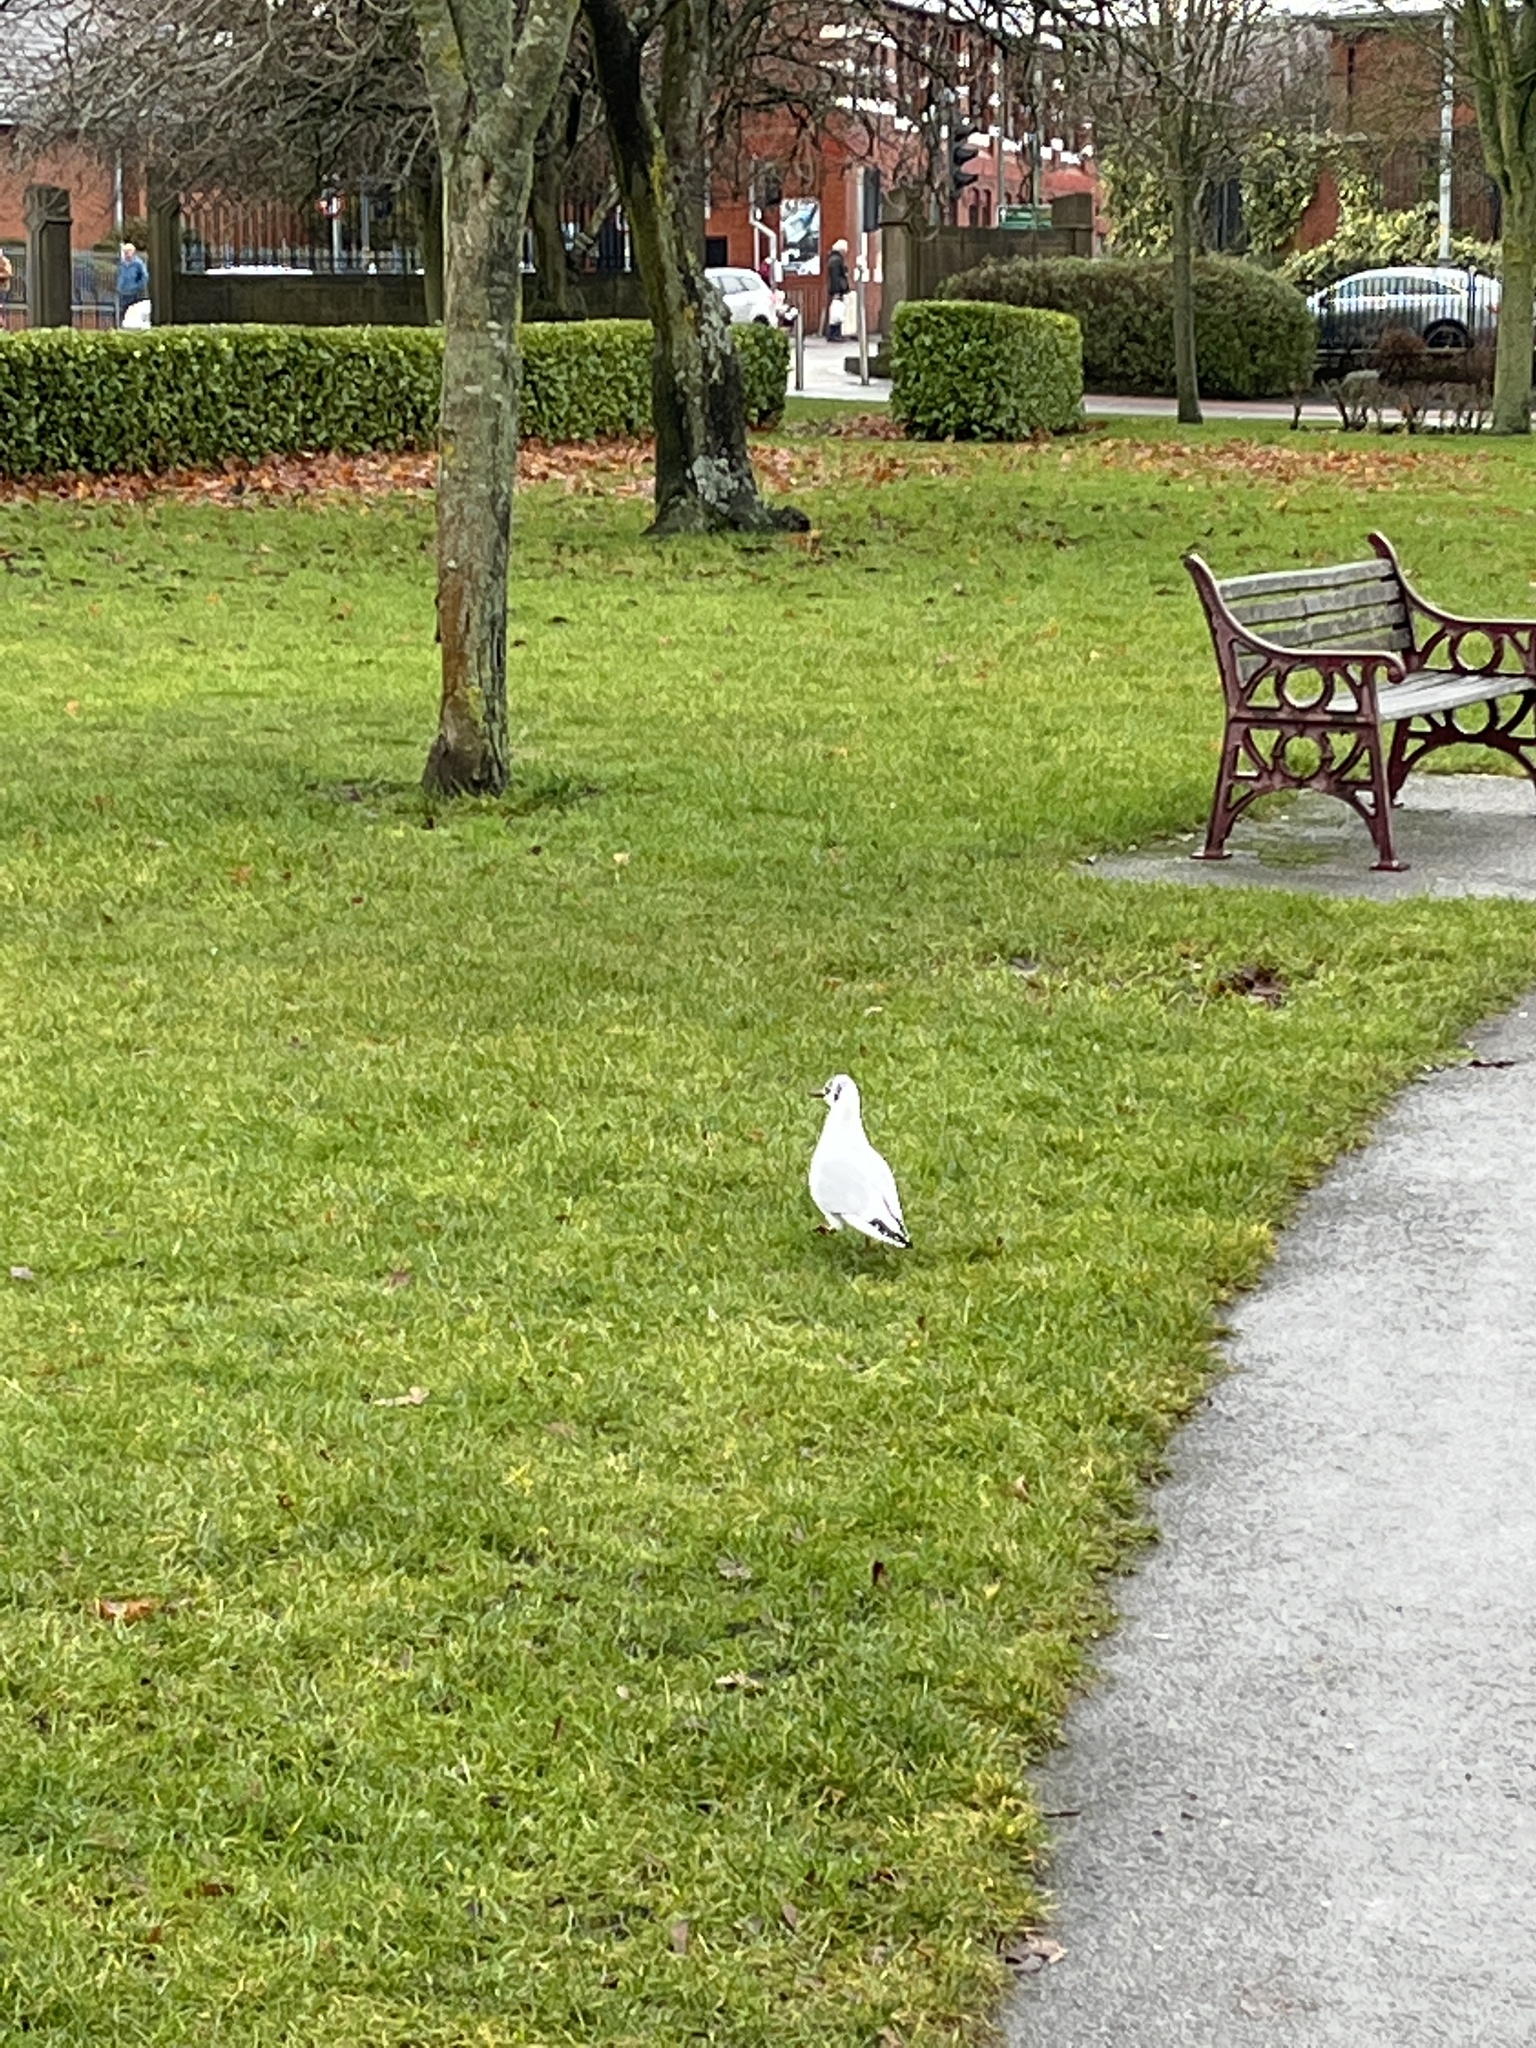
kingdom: Animalia
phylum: Chordata
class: Aves
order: Charadriiformes
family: Laridae
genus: Chroicocephalus
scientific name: Chroicocephalus ridibundus
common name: Black-headed gull
